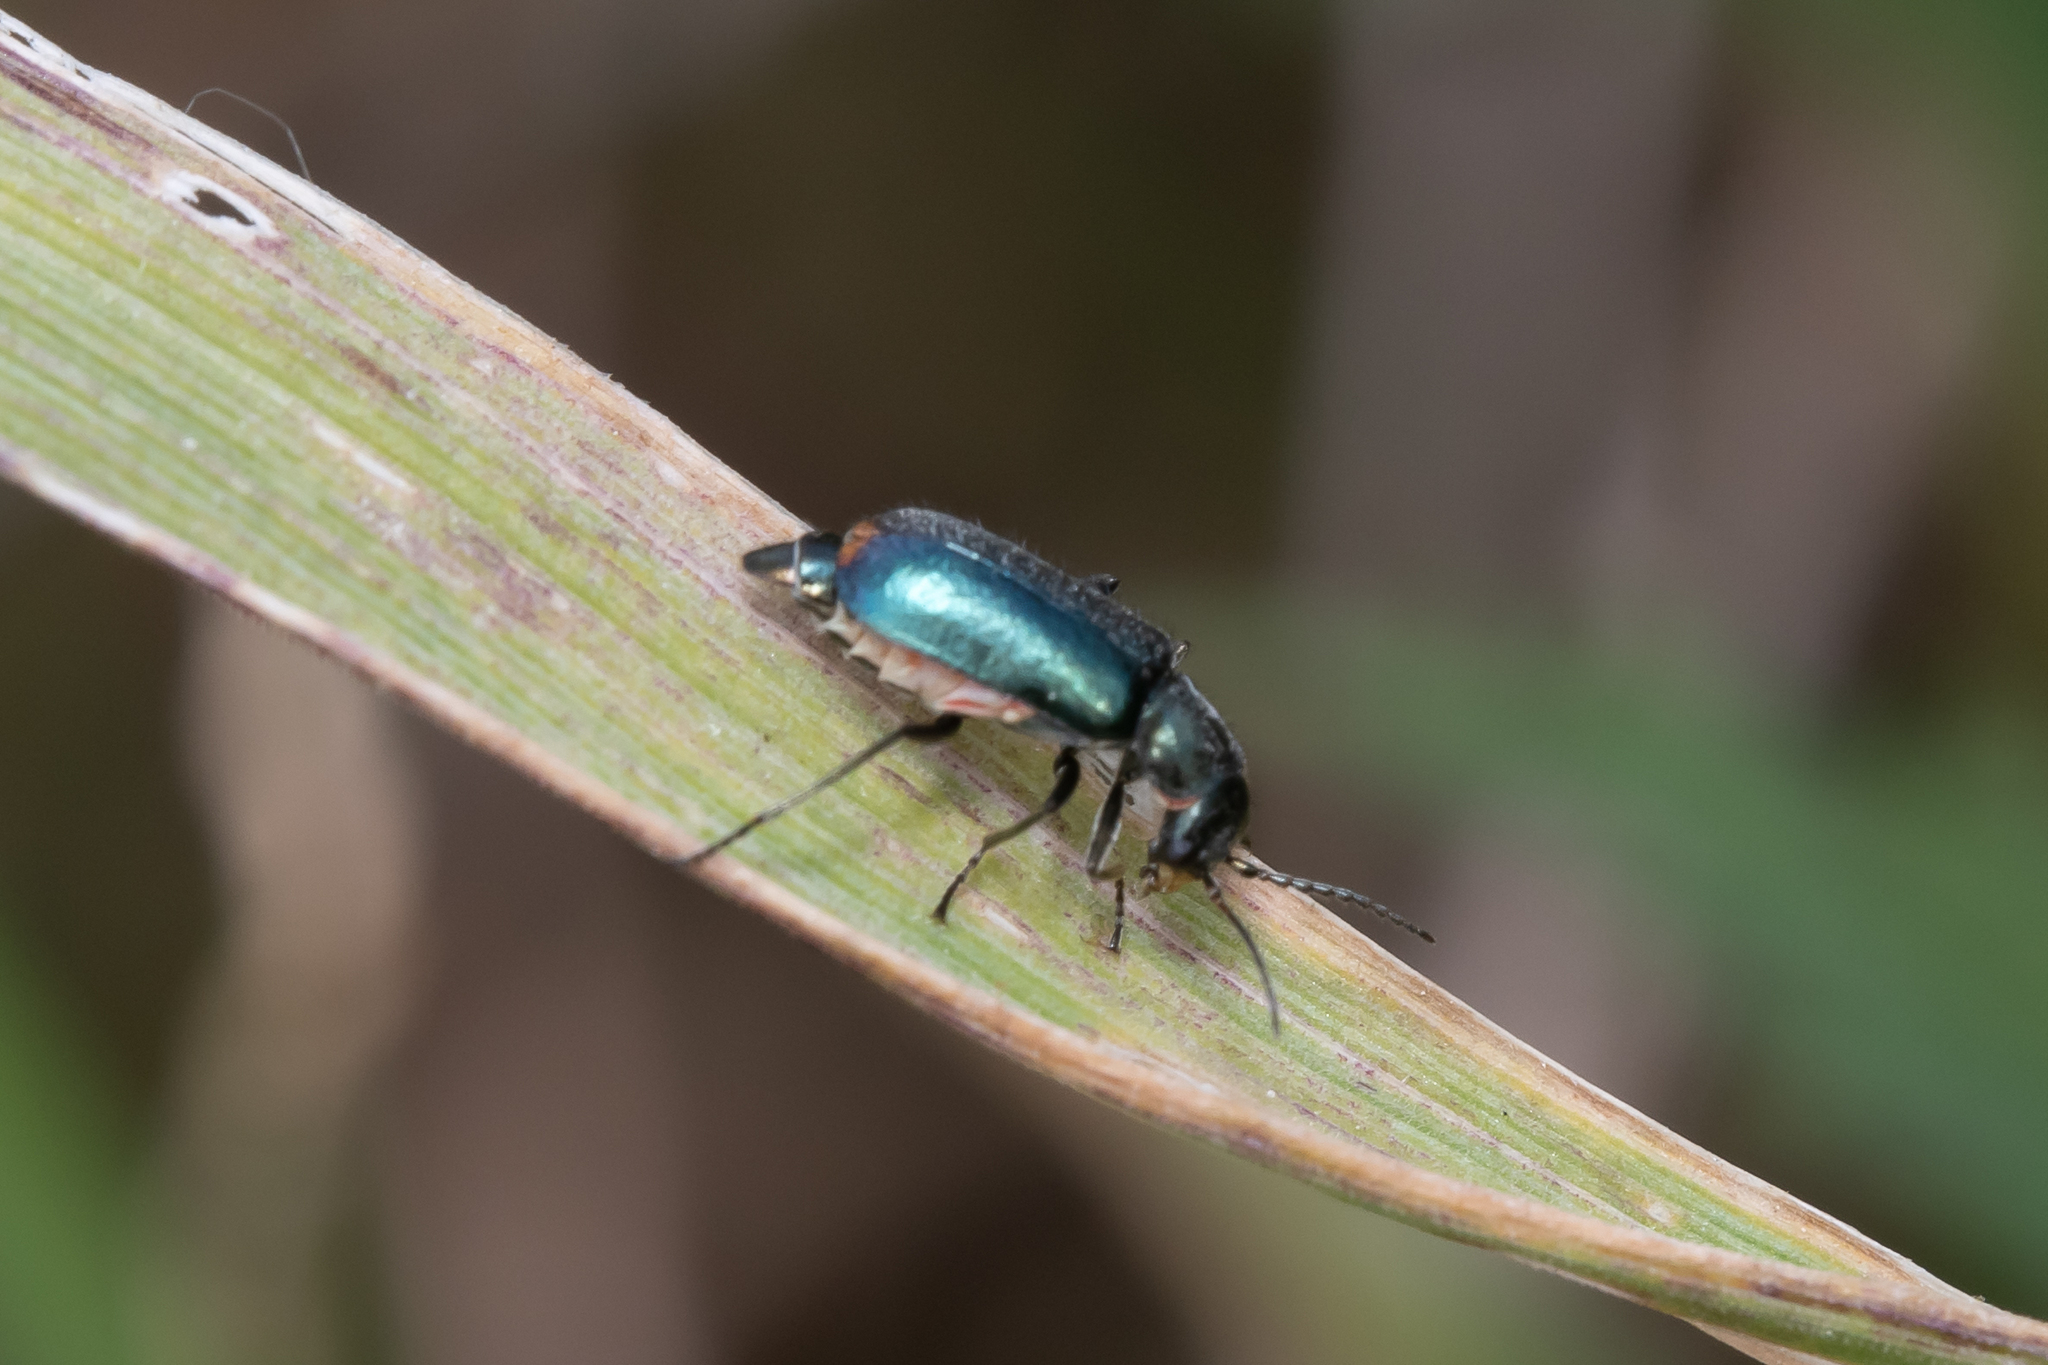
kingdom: Animalia
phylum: Arthropoda
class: Insecta
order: Coleoptera
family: Malachiidae
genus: Cordylepherus
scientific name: Cordylepherus viridis
